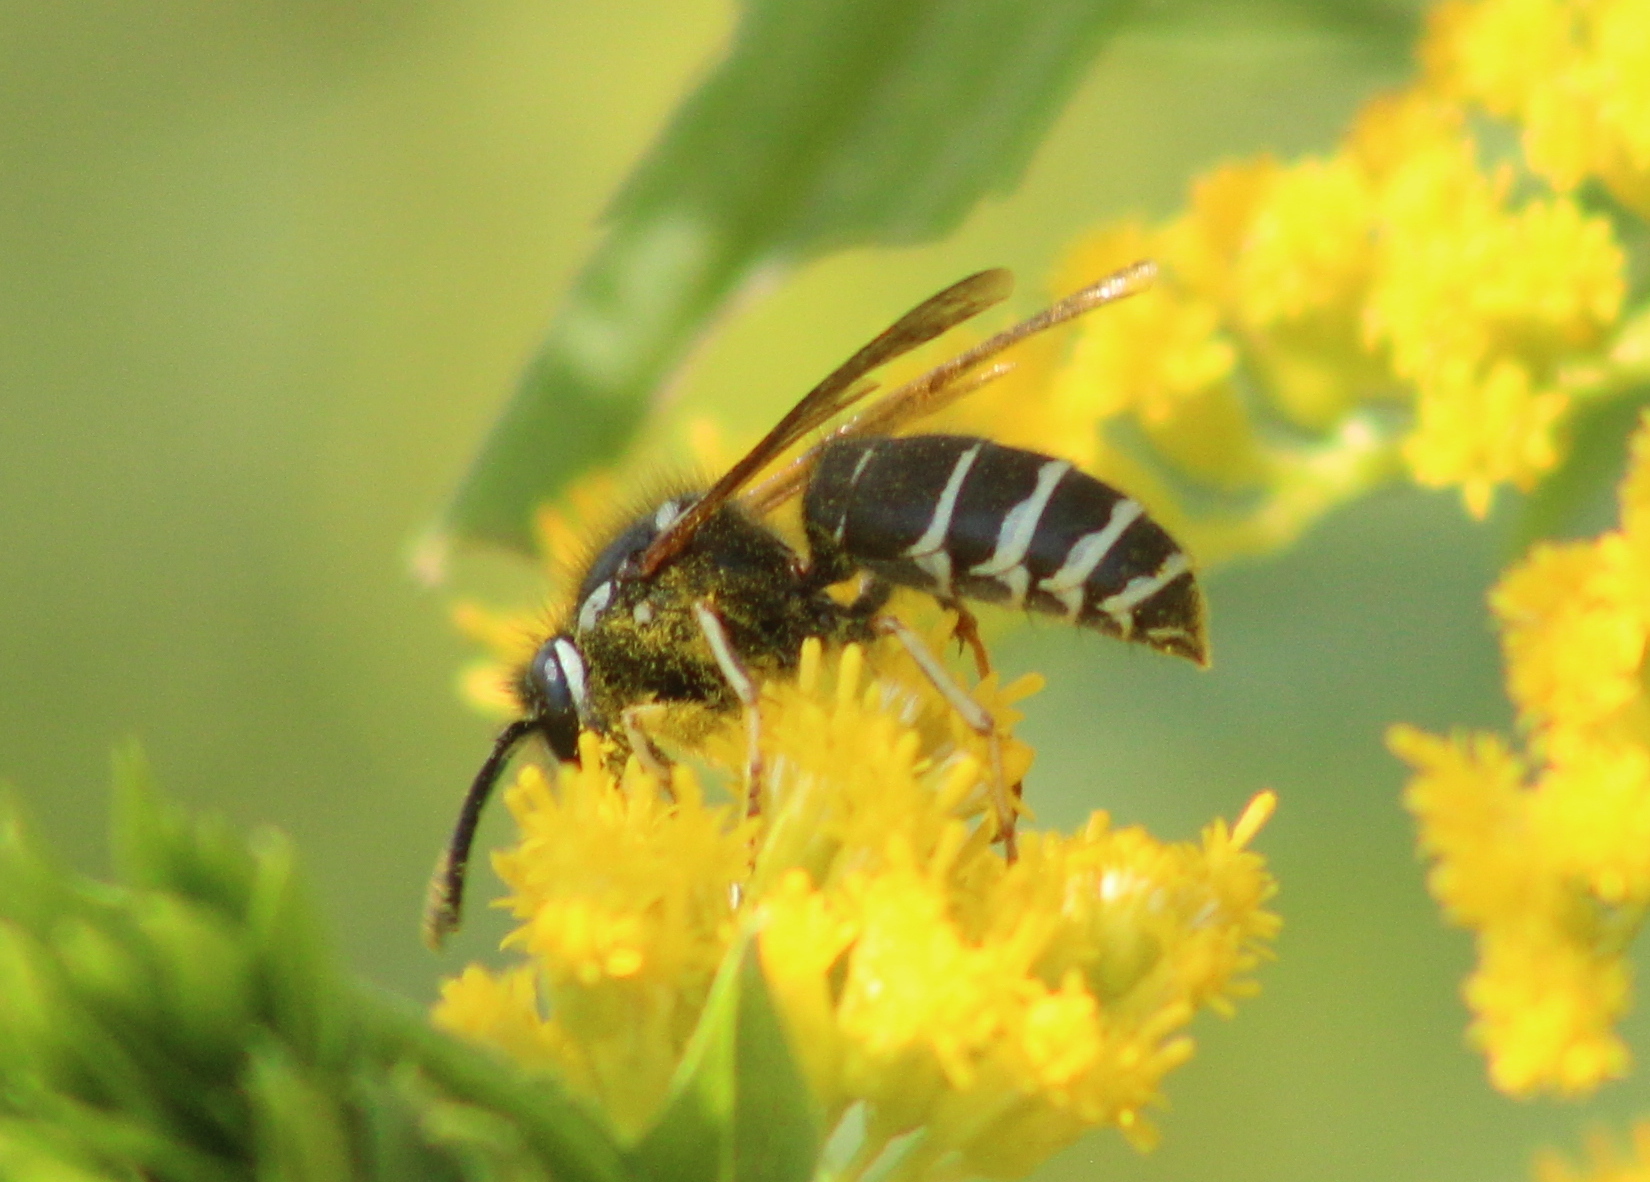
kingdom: Animalia
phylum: Arthropoda
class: Insecta
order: Hymenoptera
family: Vespidae
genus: Vespula
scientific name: Vespula consobrina
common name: Blackjacket
